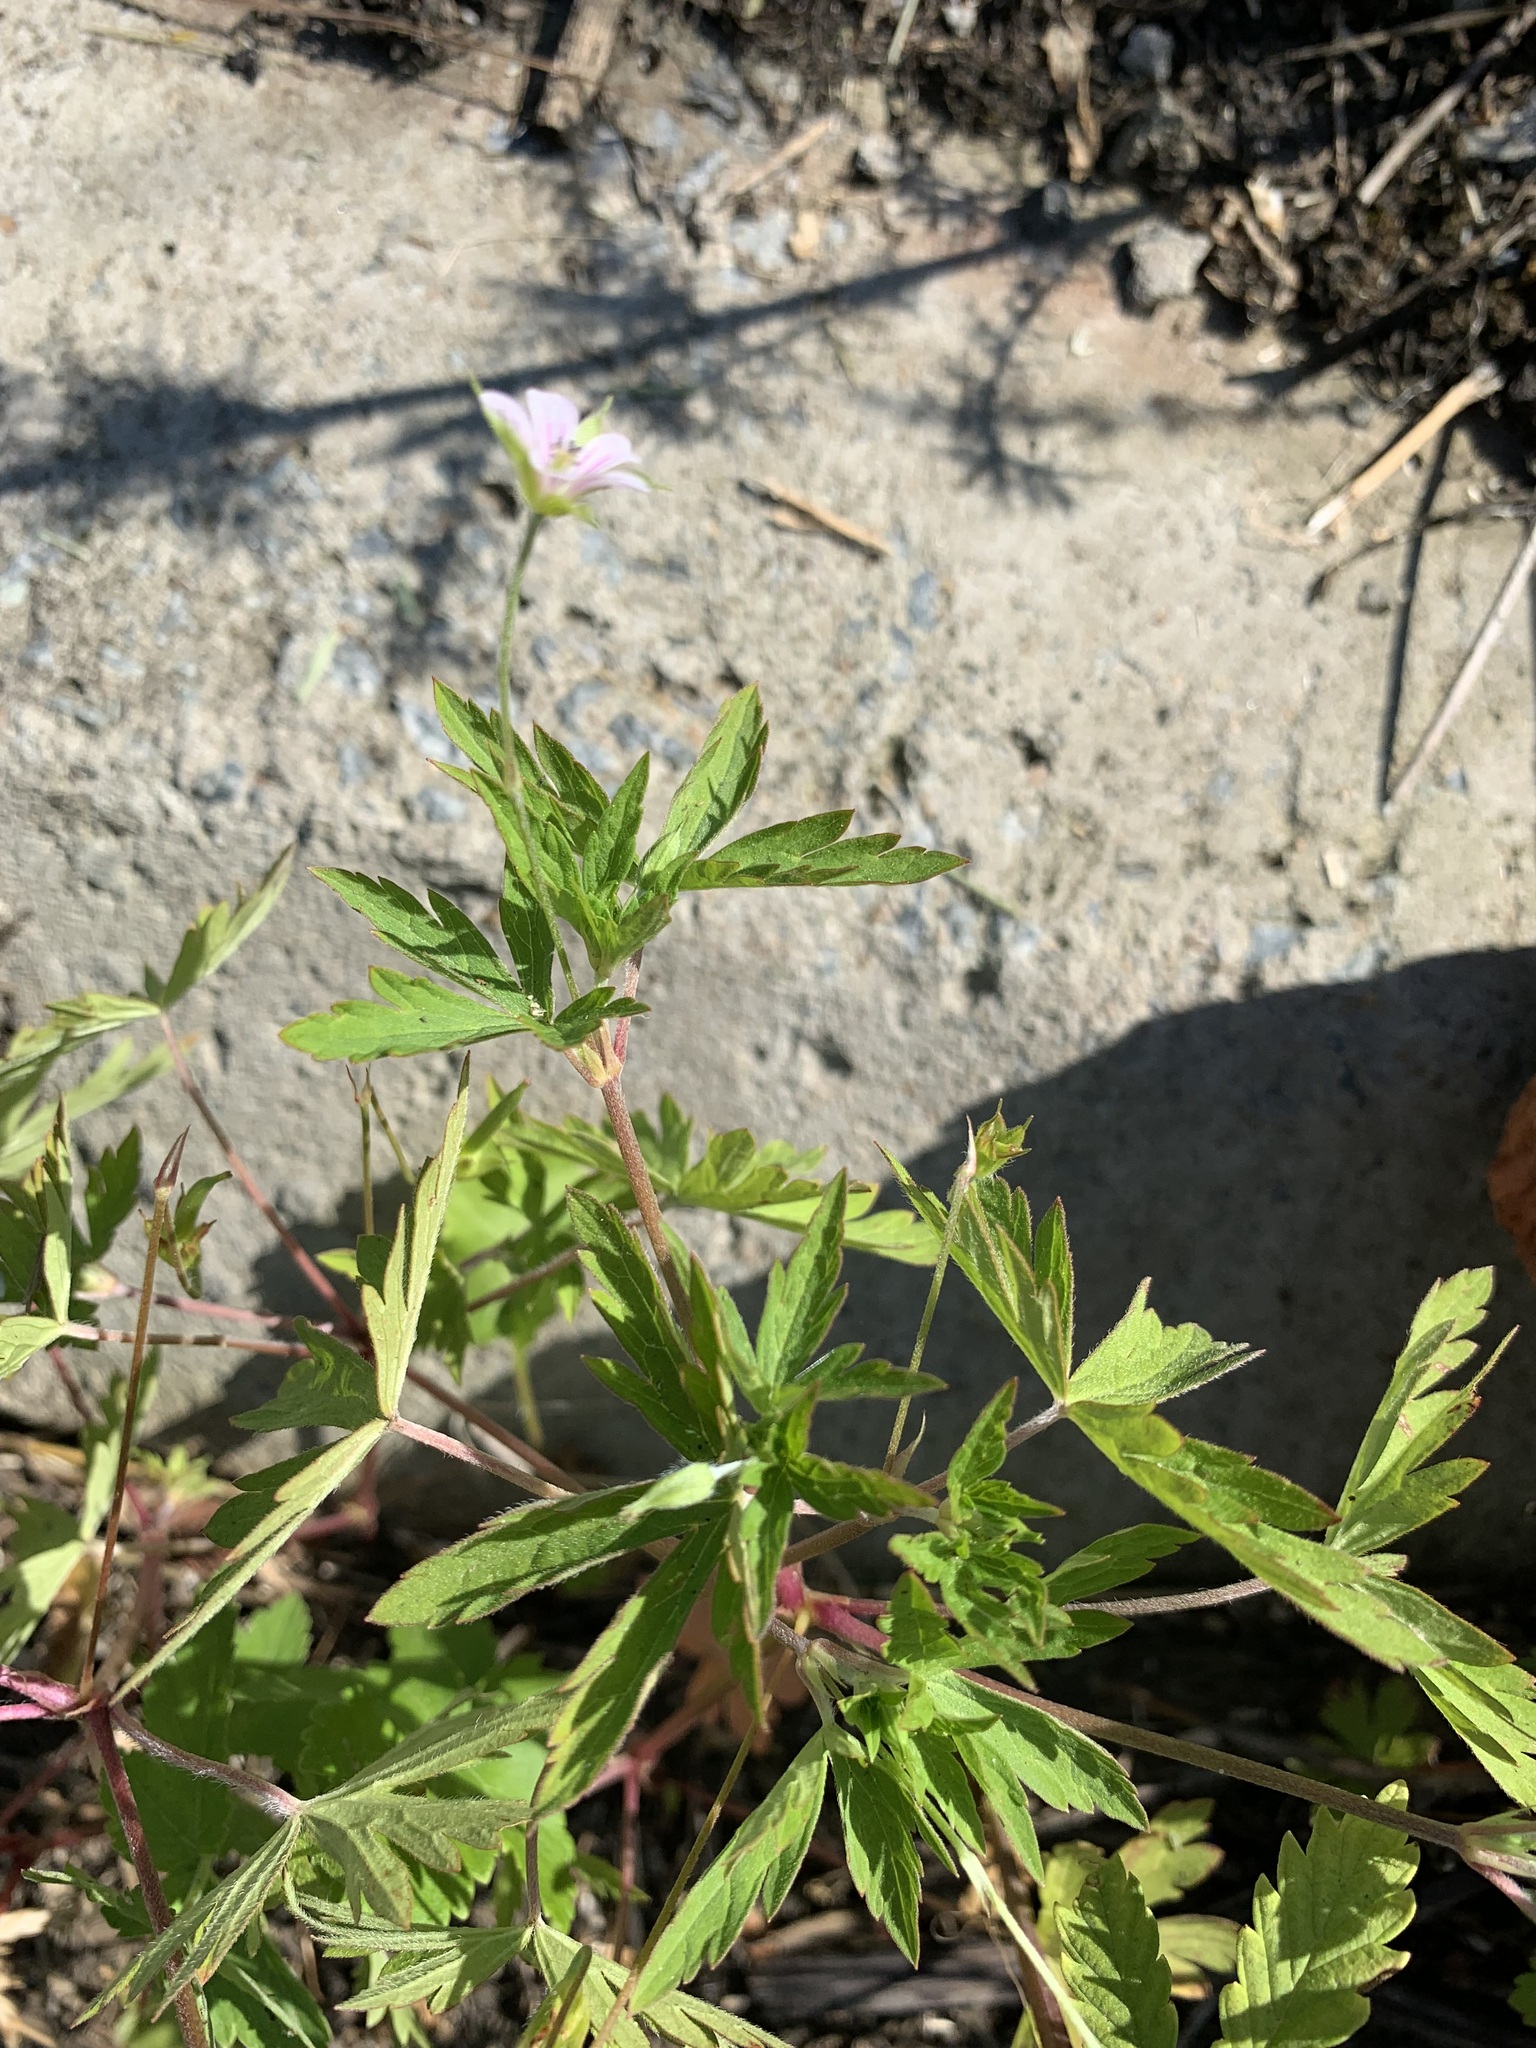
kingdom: Plantae
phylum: Tracheophyta
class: Magnoliopsida
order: Geraniales
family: Geraniaceae
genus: Geranium
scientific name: Geranium sibiricum
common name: Siberian crane's-bill
